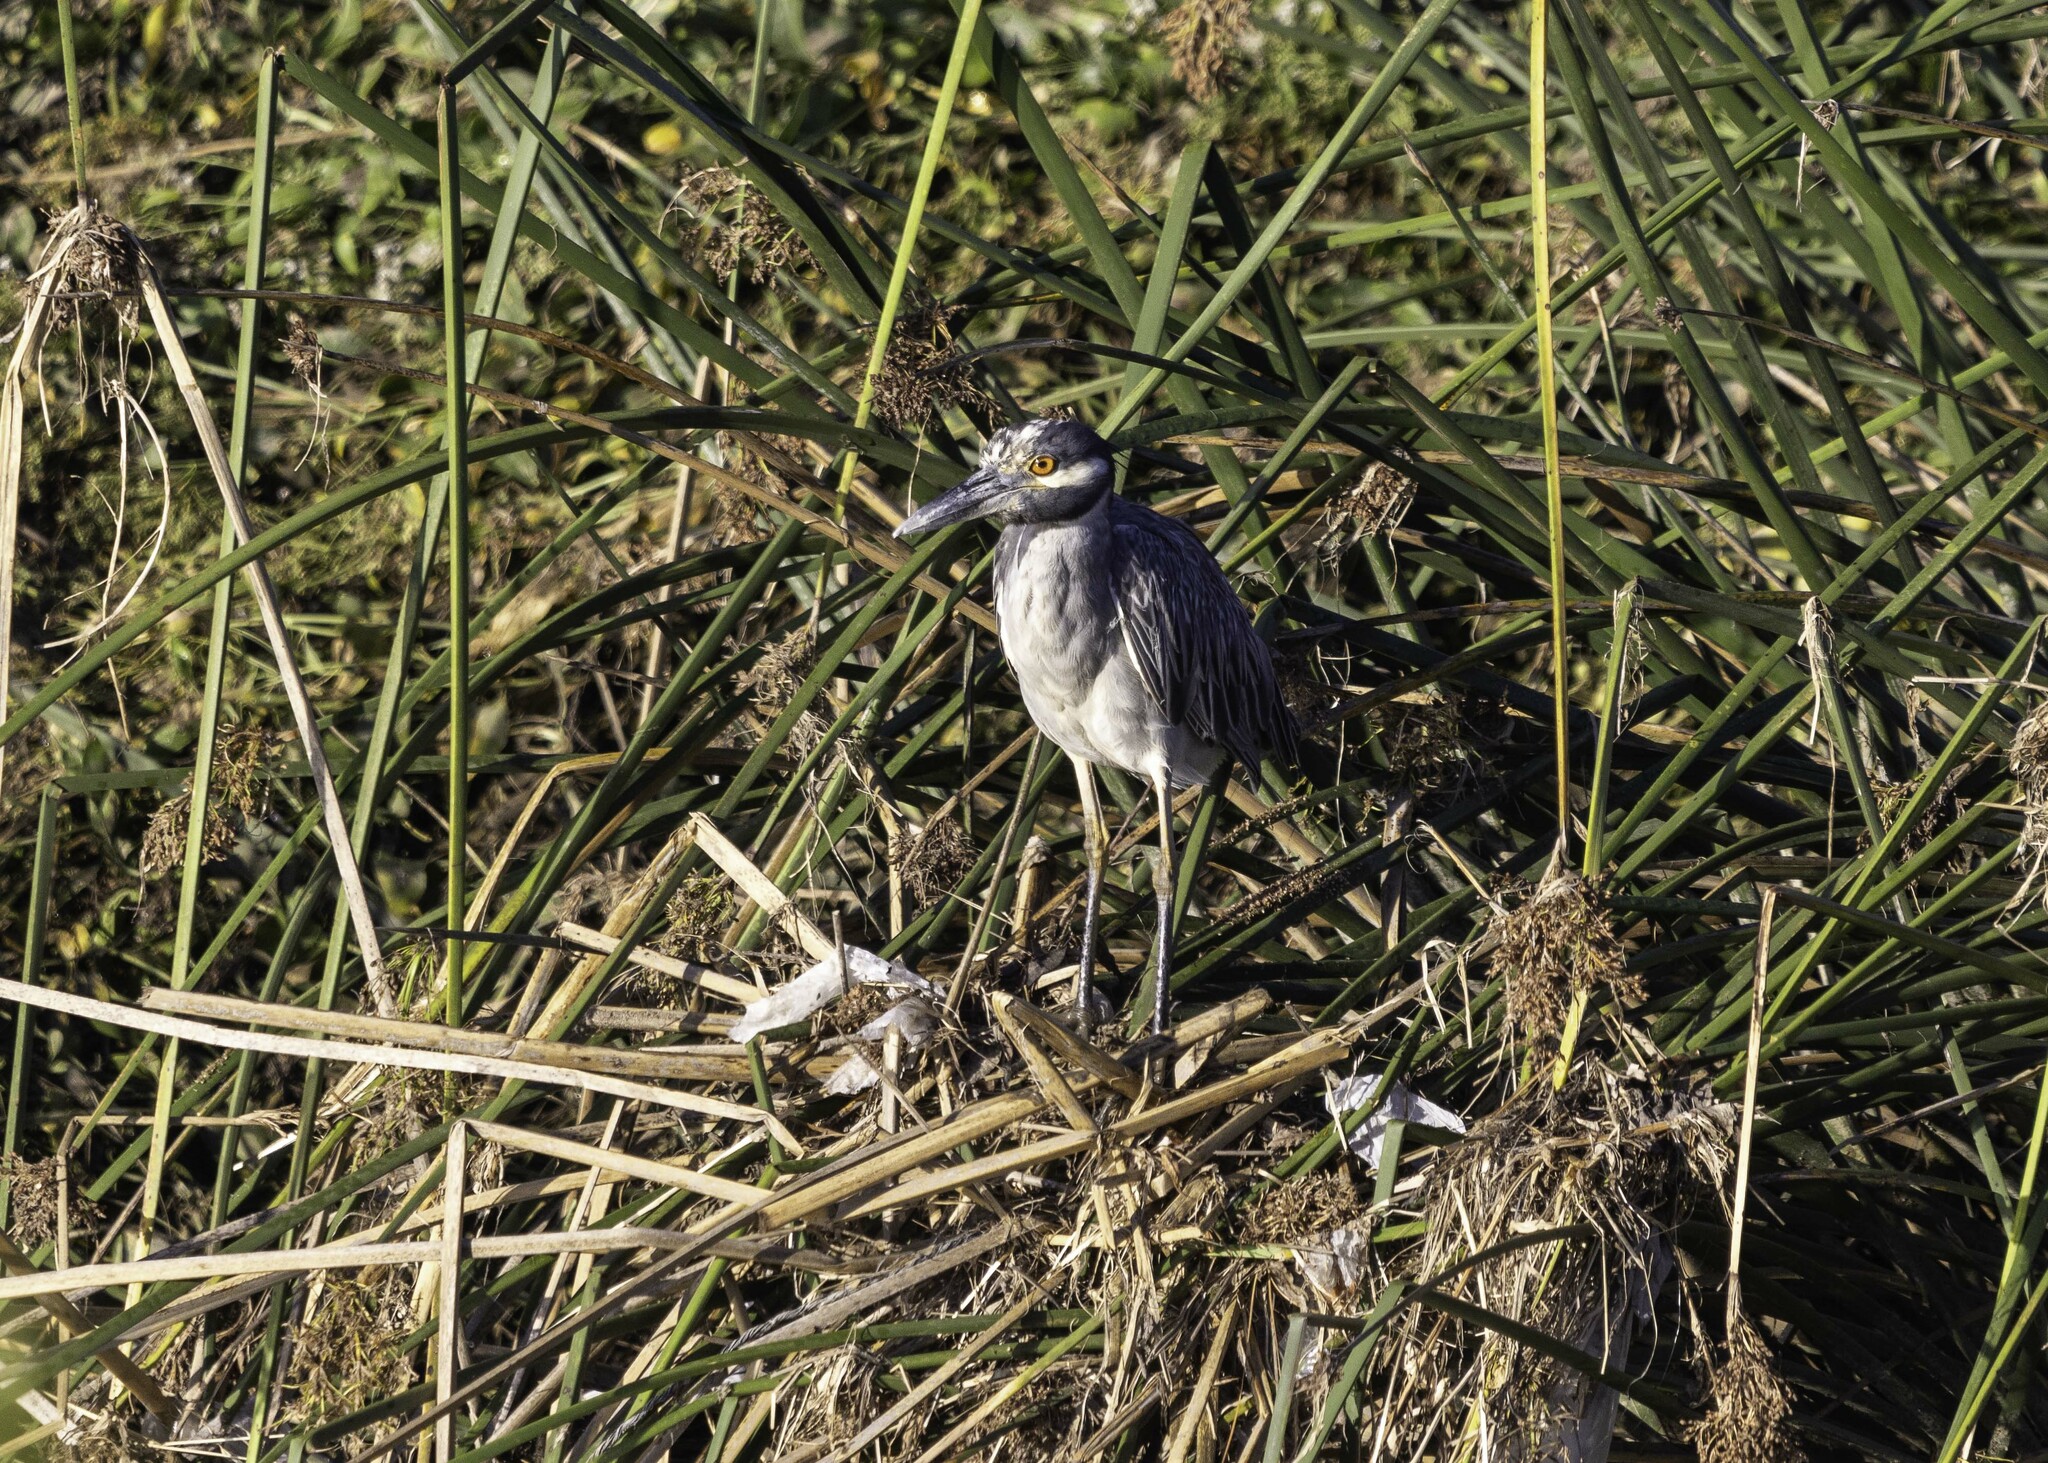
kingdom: Animalia
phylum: Chordata
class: Aves
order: Pelecaniformes
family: Ardeidae
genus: Nyctanassa
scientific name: Nyctanassa violacea
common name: Yellow-crowned night heron
